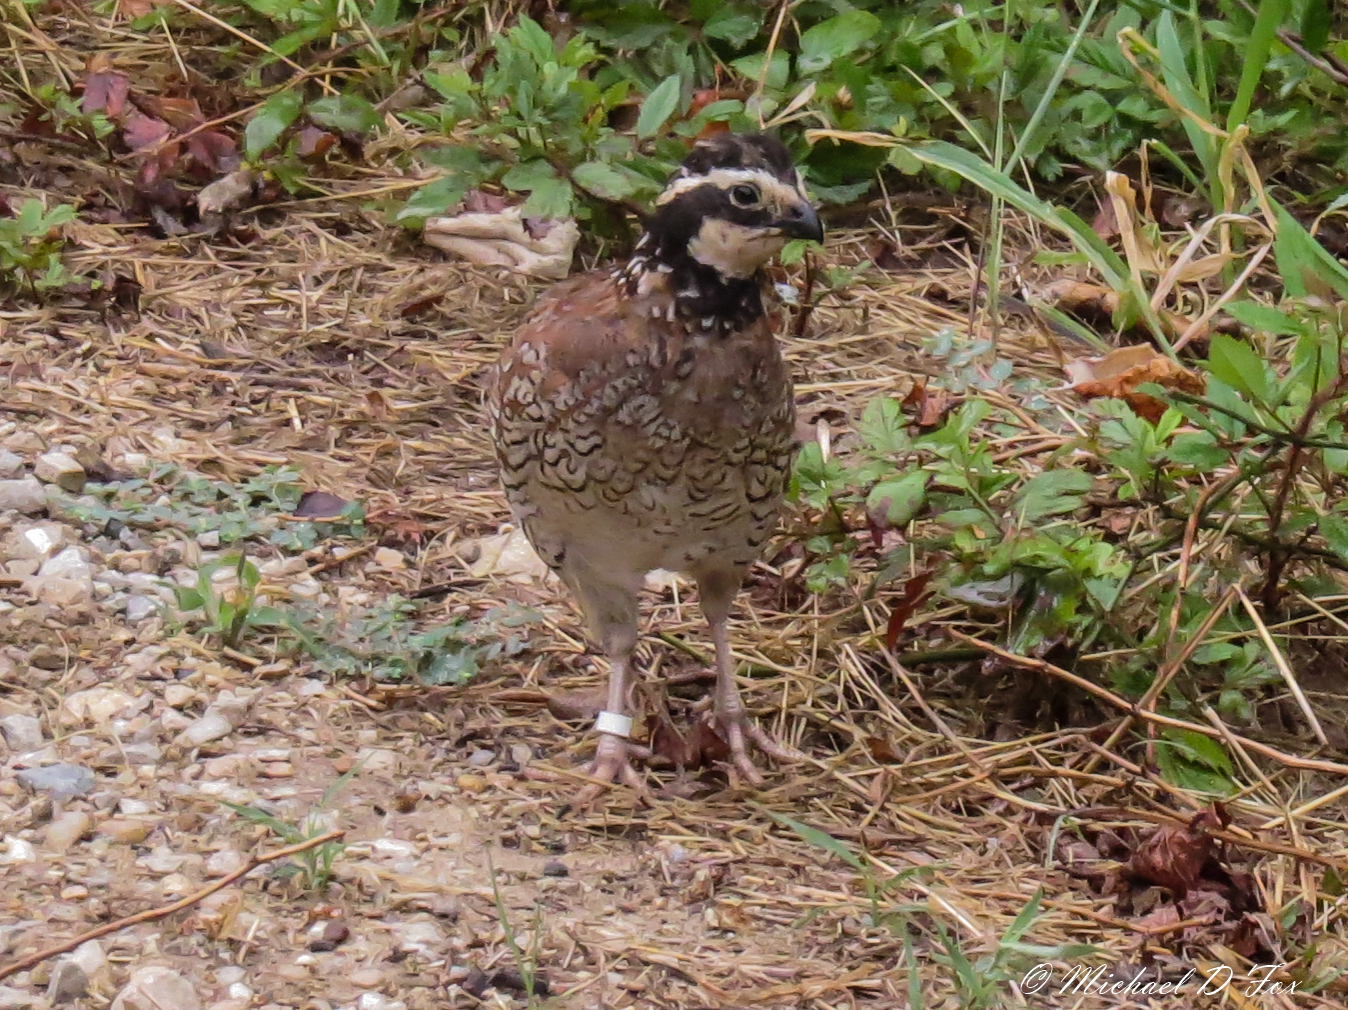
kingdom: Animalia
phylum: Chordata
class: Aves
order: Galliformes
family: Odontophoridae
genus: Colinus
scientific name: Colinus virginianus
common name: Northern bobwhite
